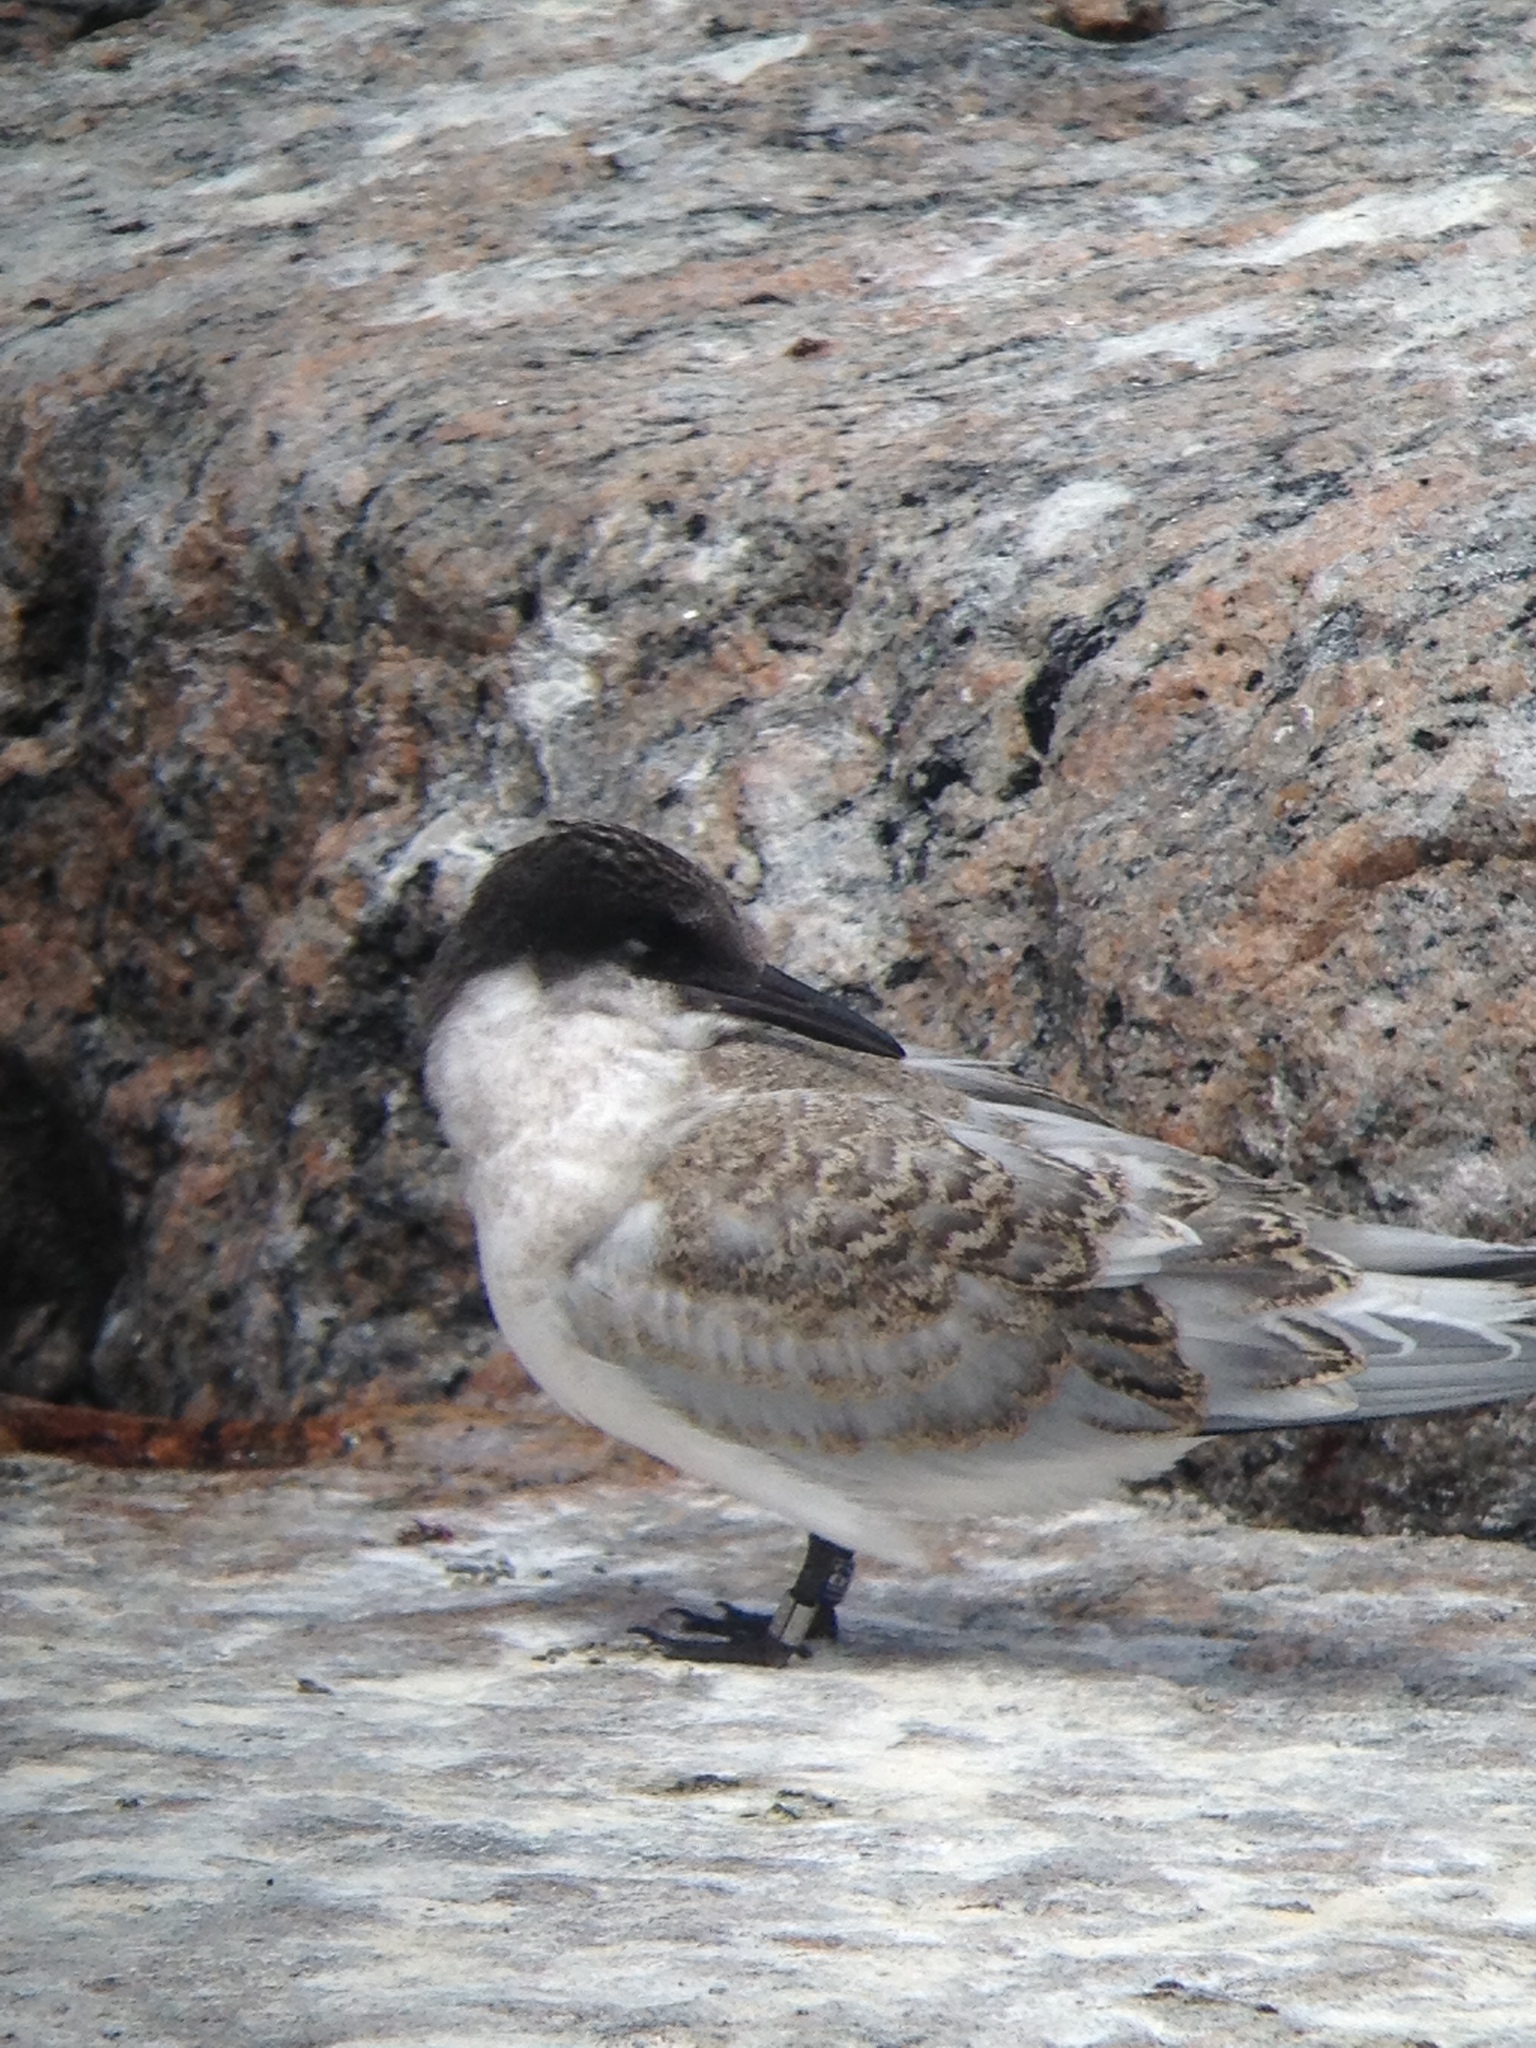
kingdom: Animalia
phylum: Chordata
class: Aves
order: Charadriiformes
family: Laridae
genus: Sterna
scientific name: Sterna dougallii
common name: Roseate tern
